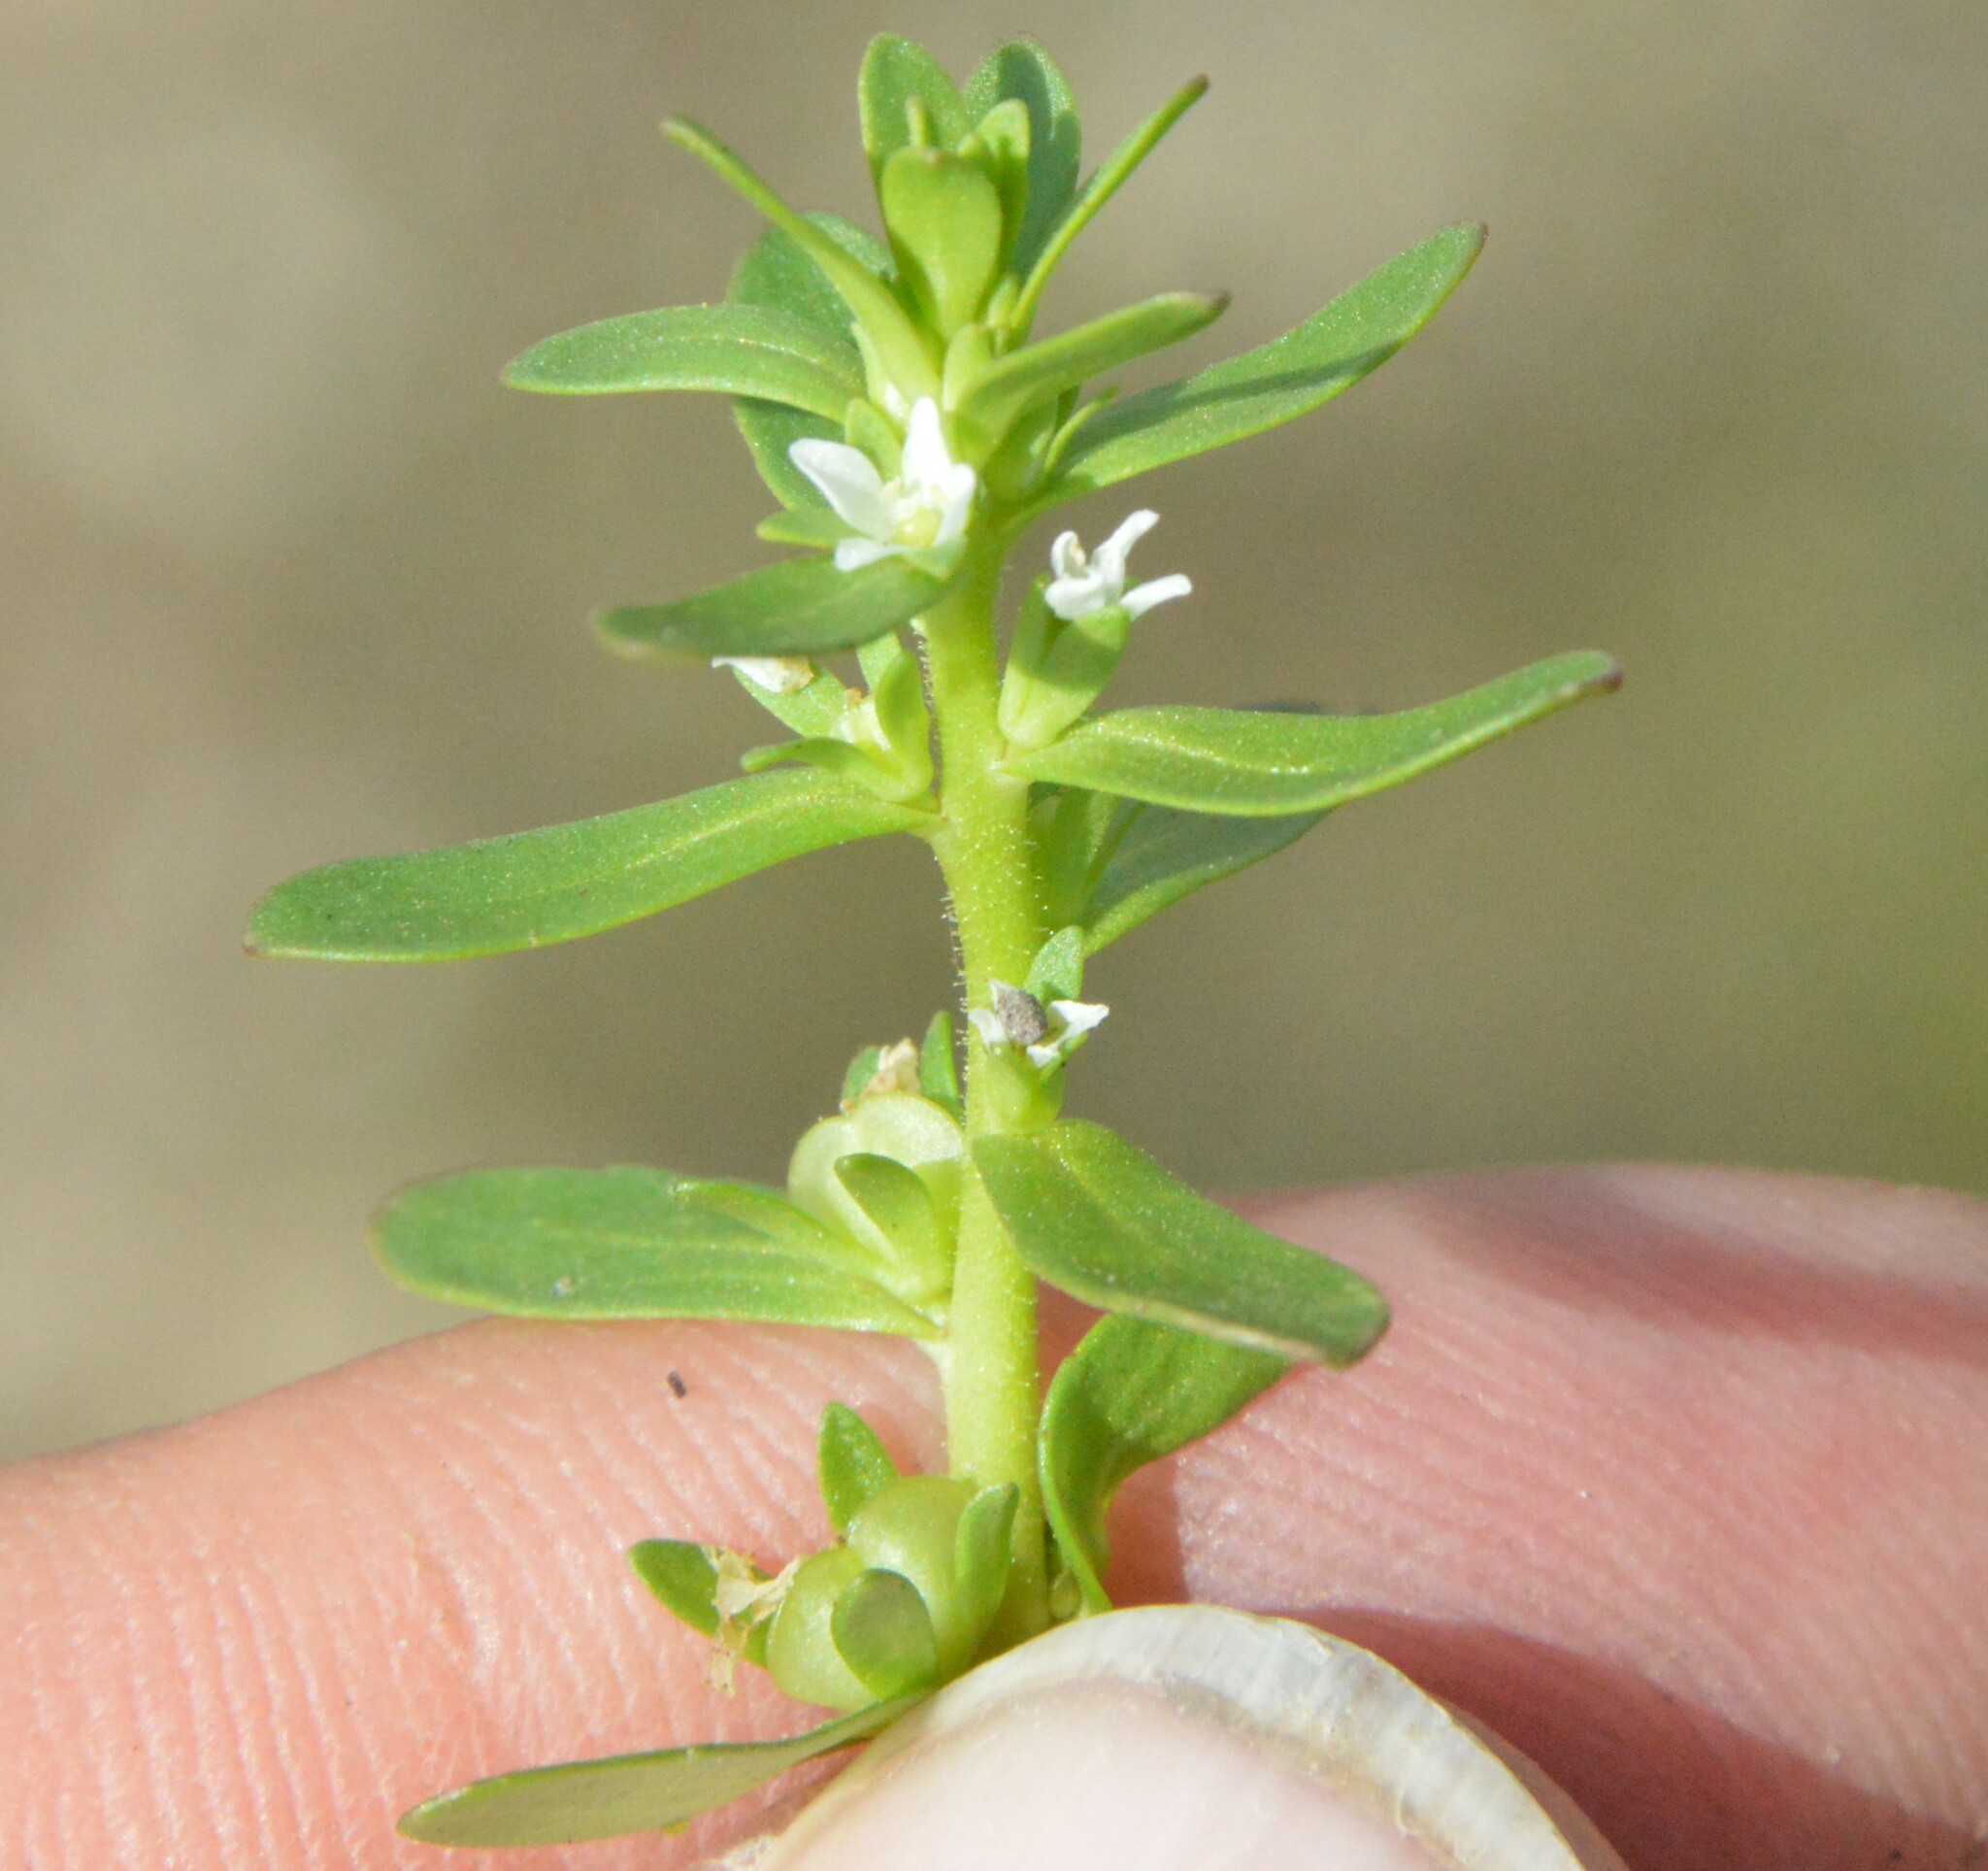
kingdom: Plantae
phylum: Tracheophyta
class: Magnoliopsida
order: Lamiales
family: Plantaginaceae
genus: Veronica
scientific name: Veronica peregrina
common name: Neckweed
